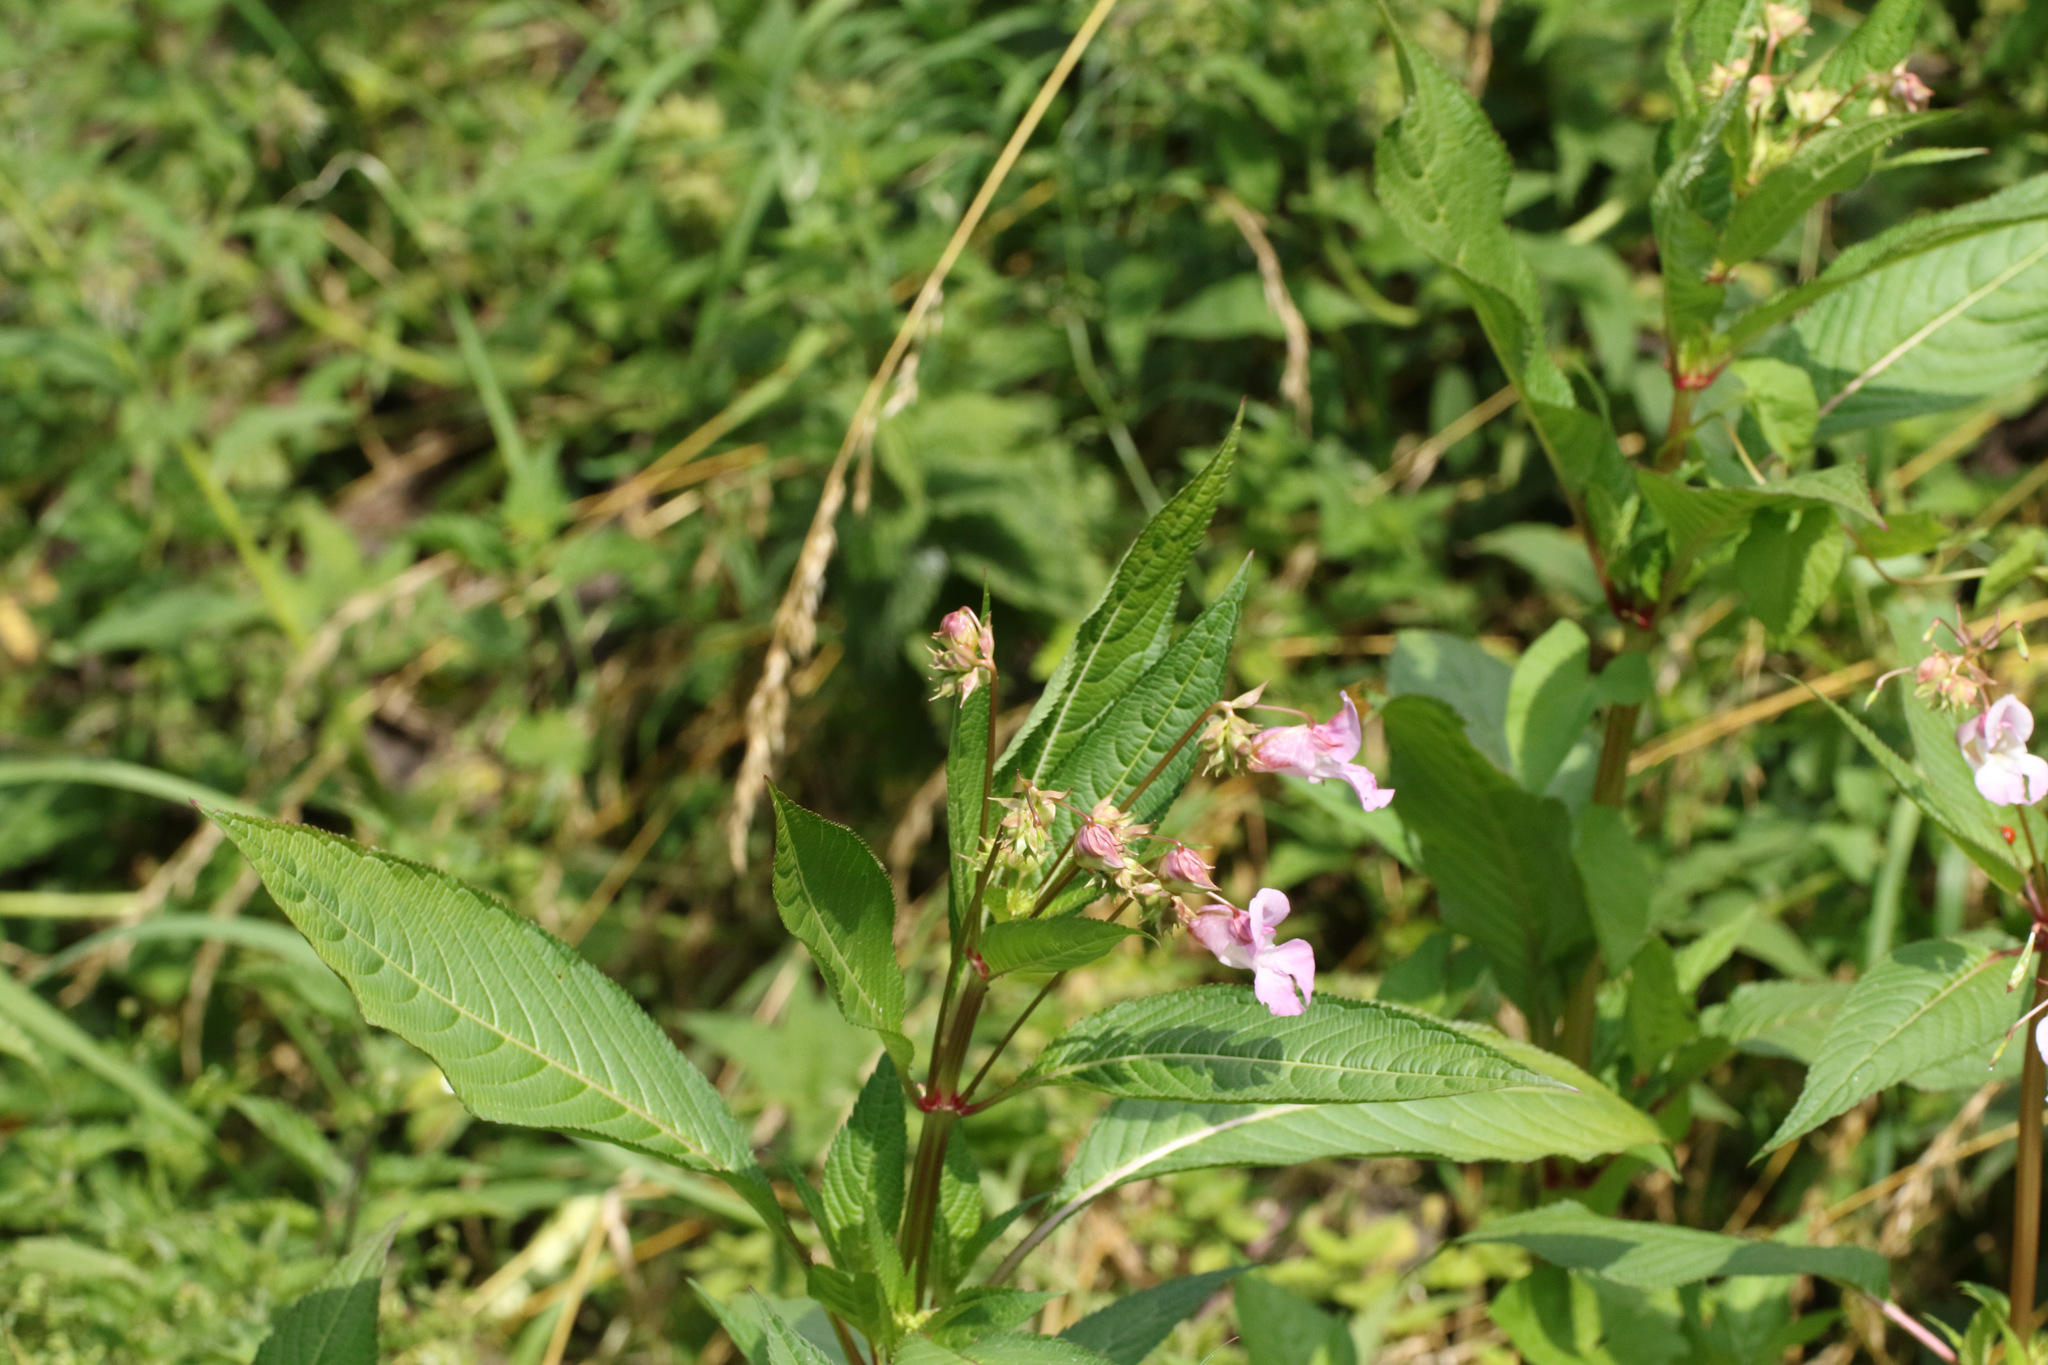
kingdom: Plantae
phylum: Tracheophyta
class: Magnoliopsida
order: Ericales
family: Balsaminaceae
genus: Impatiens
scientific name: Impatiens glandulifera
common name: Himalayan balsam
